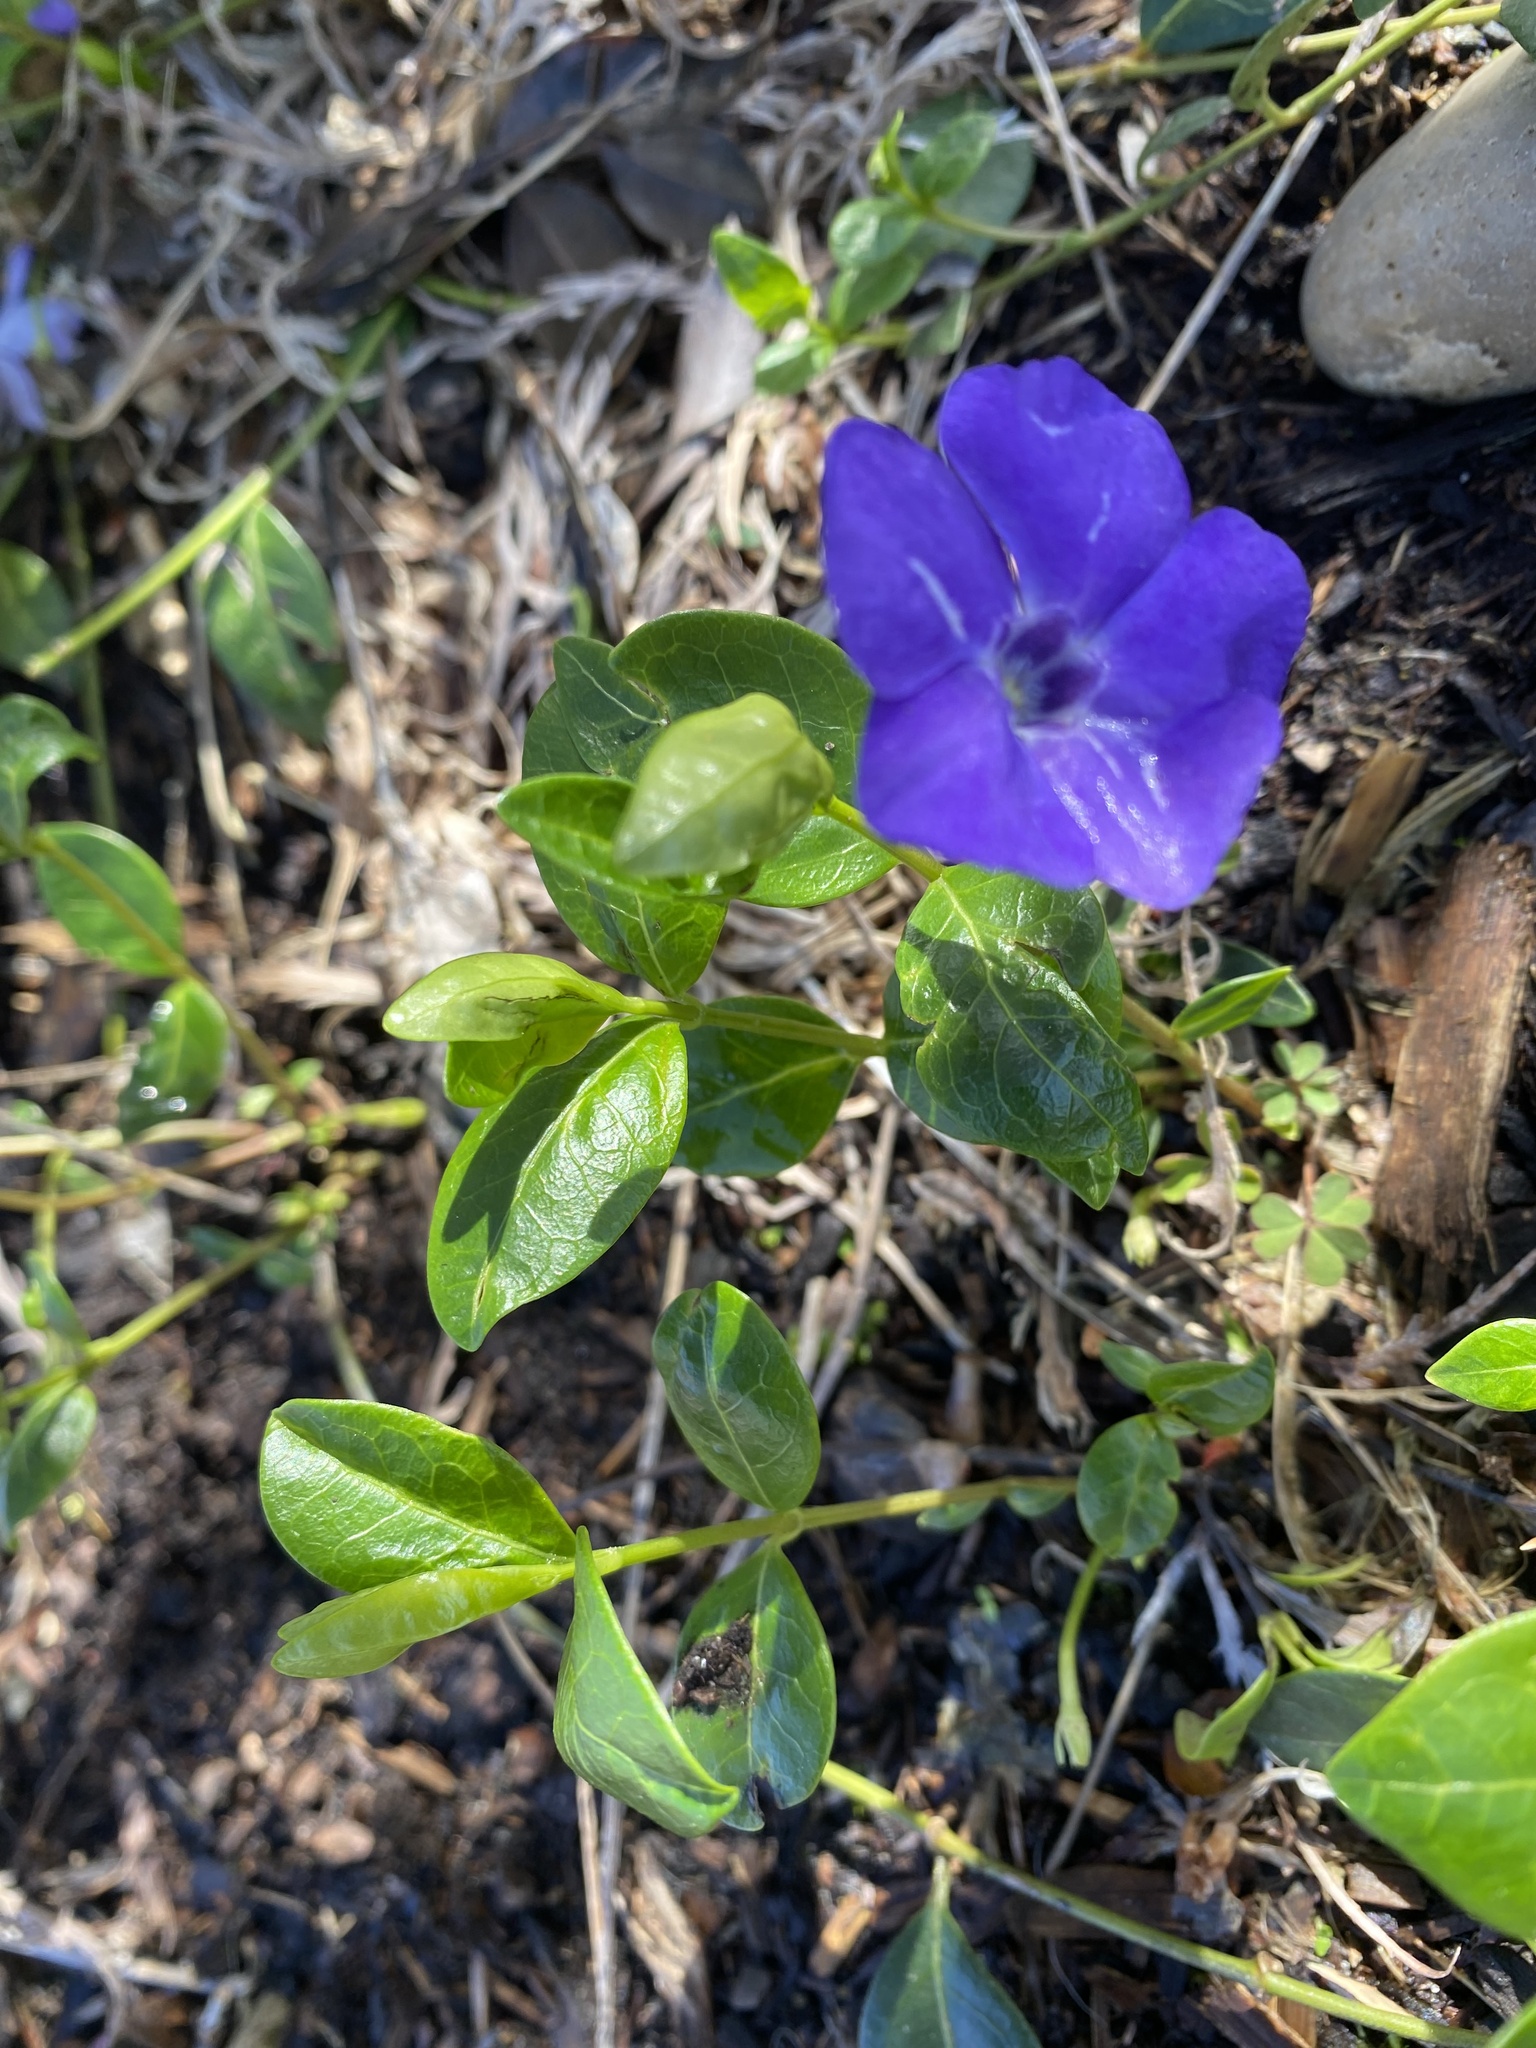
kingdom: Plantae
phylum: Tracheophyta
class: Magnoliopsida
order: Gentianales
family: Apocynaceae
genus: Vinca
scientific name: Vinca minor
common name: Lesser periwinkle
